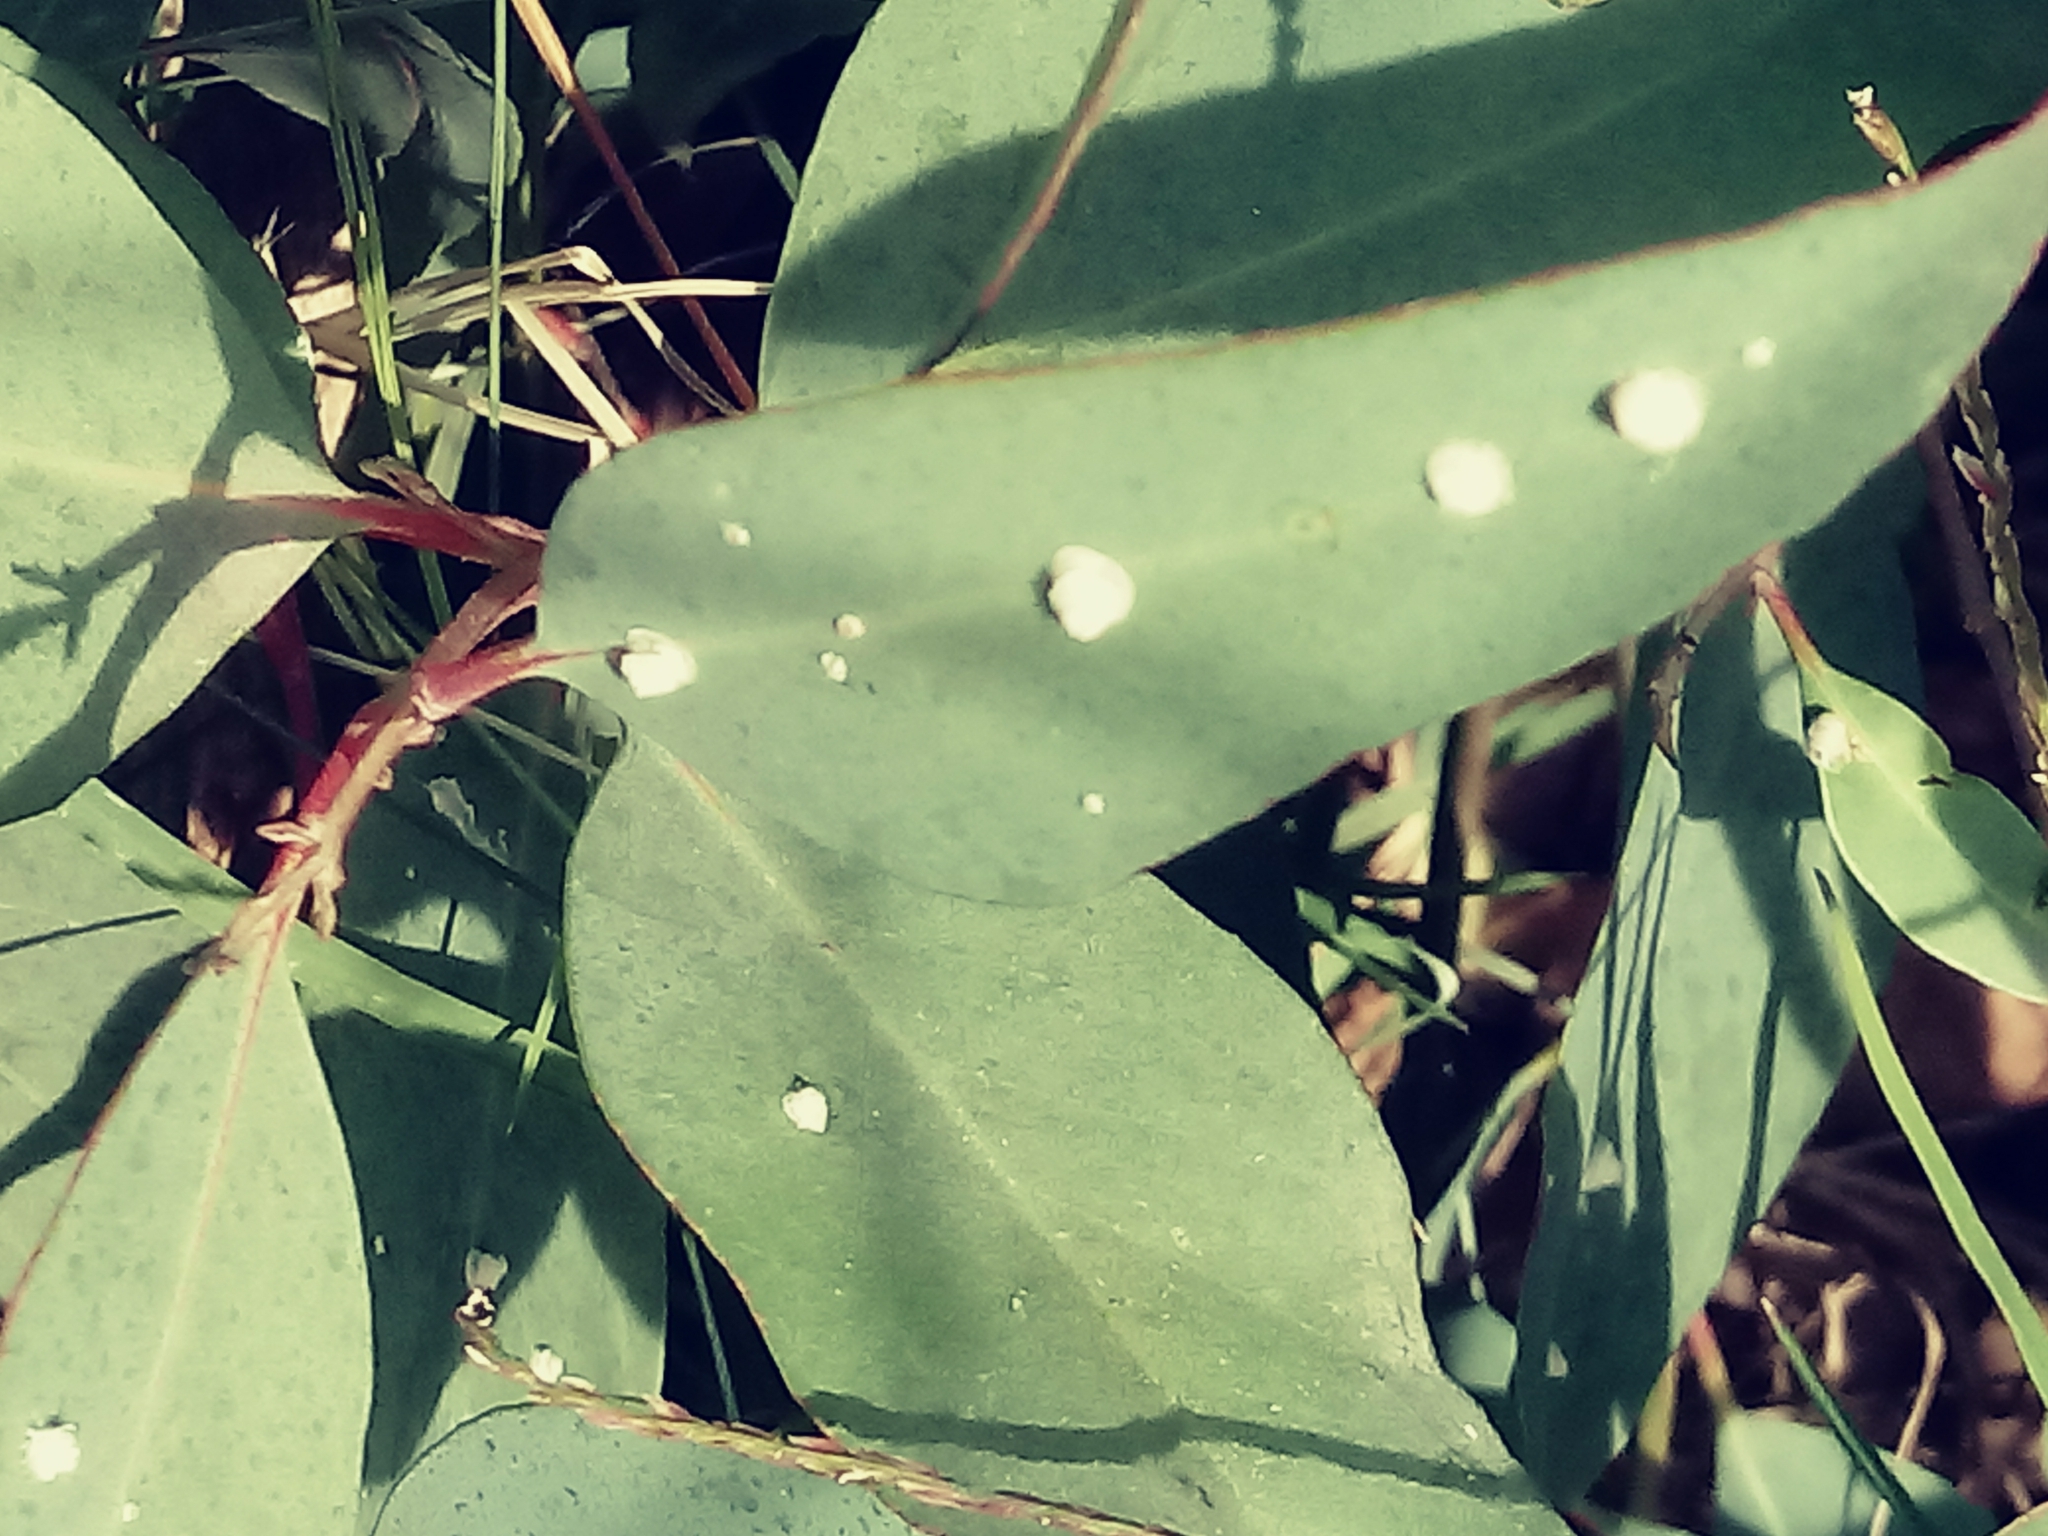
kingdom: Animalia
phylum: Arthropoda
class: Insecta
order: Hemiptera
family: Aphalaridae
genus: Glycaspis
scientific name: Glycaspis brimblecombei
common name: Red gum lerp psyllid
